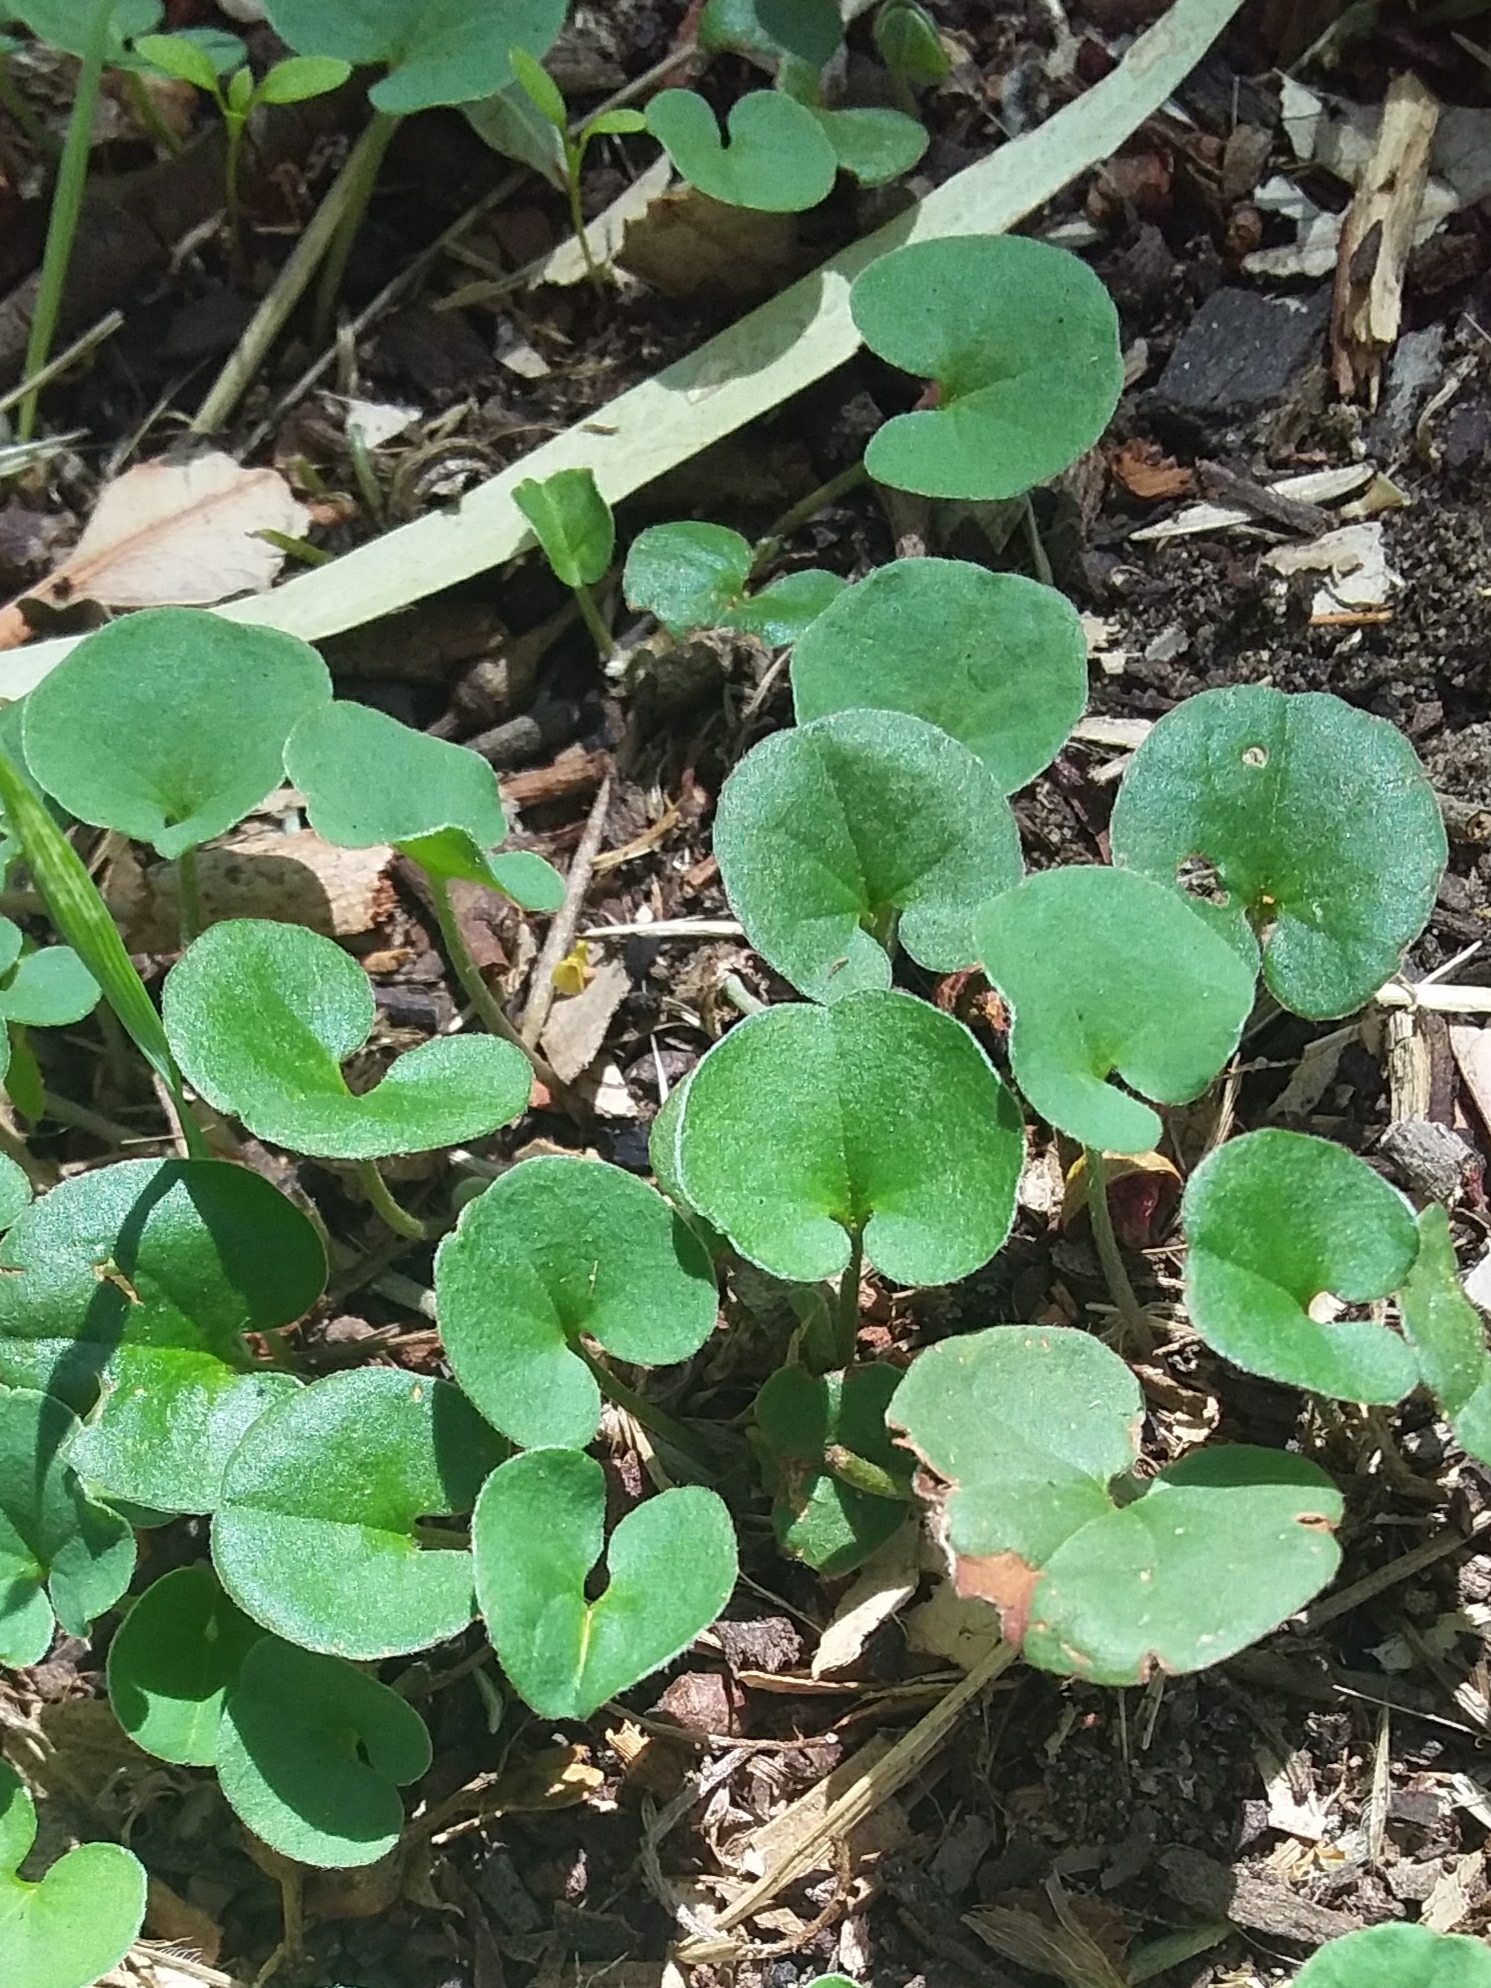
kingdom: Plantae
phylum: Tracheophyta
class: Magnoliopsida
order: Solanales
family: Convolvulaceae
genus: Dichondra
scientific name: Dichondra repens
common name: Kidneyweed
